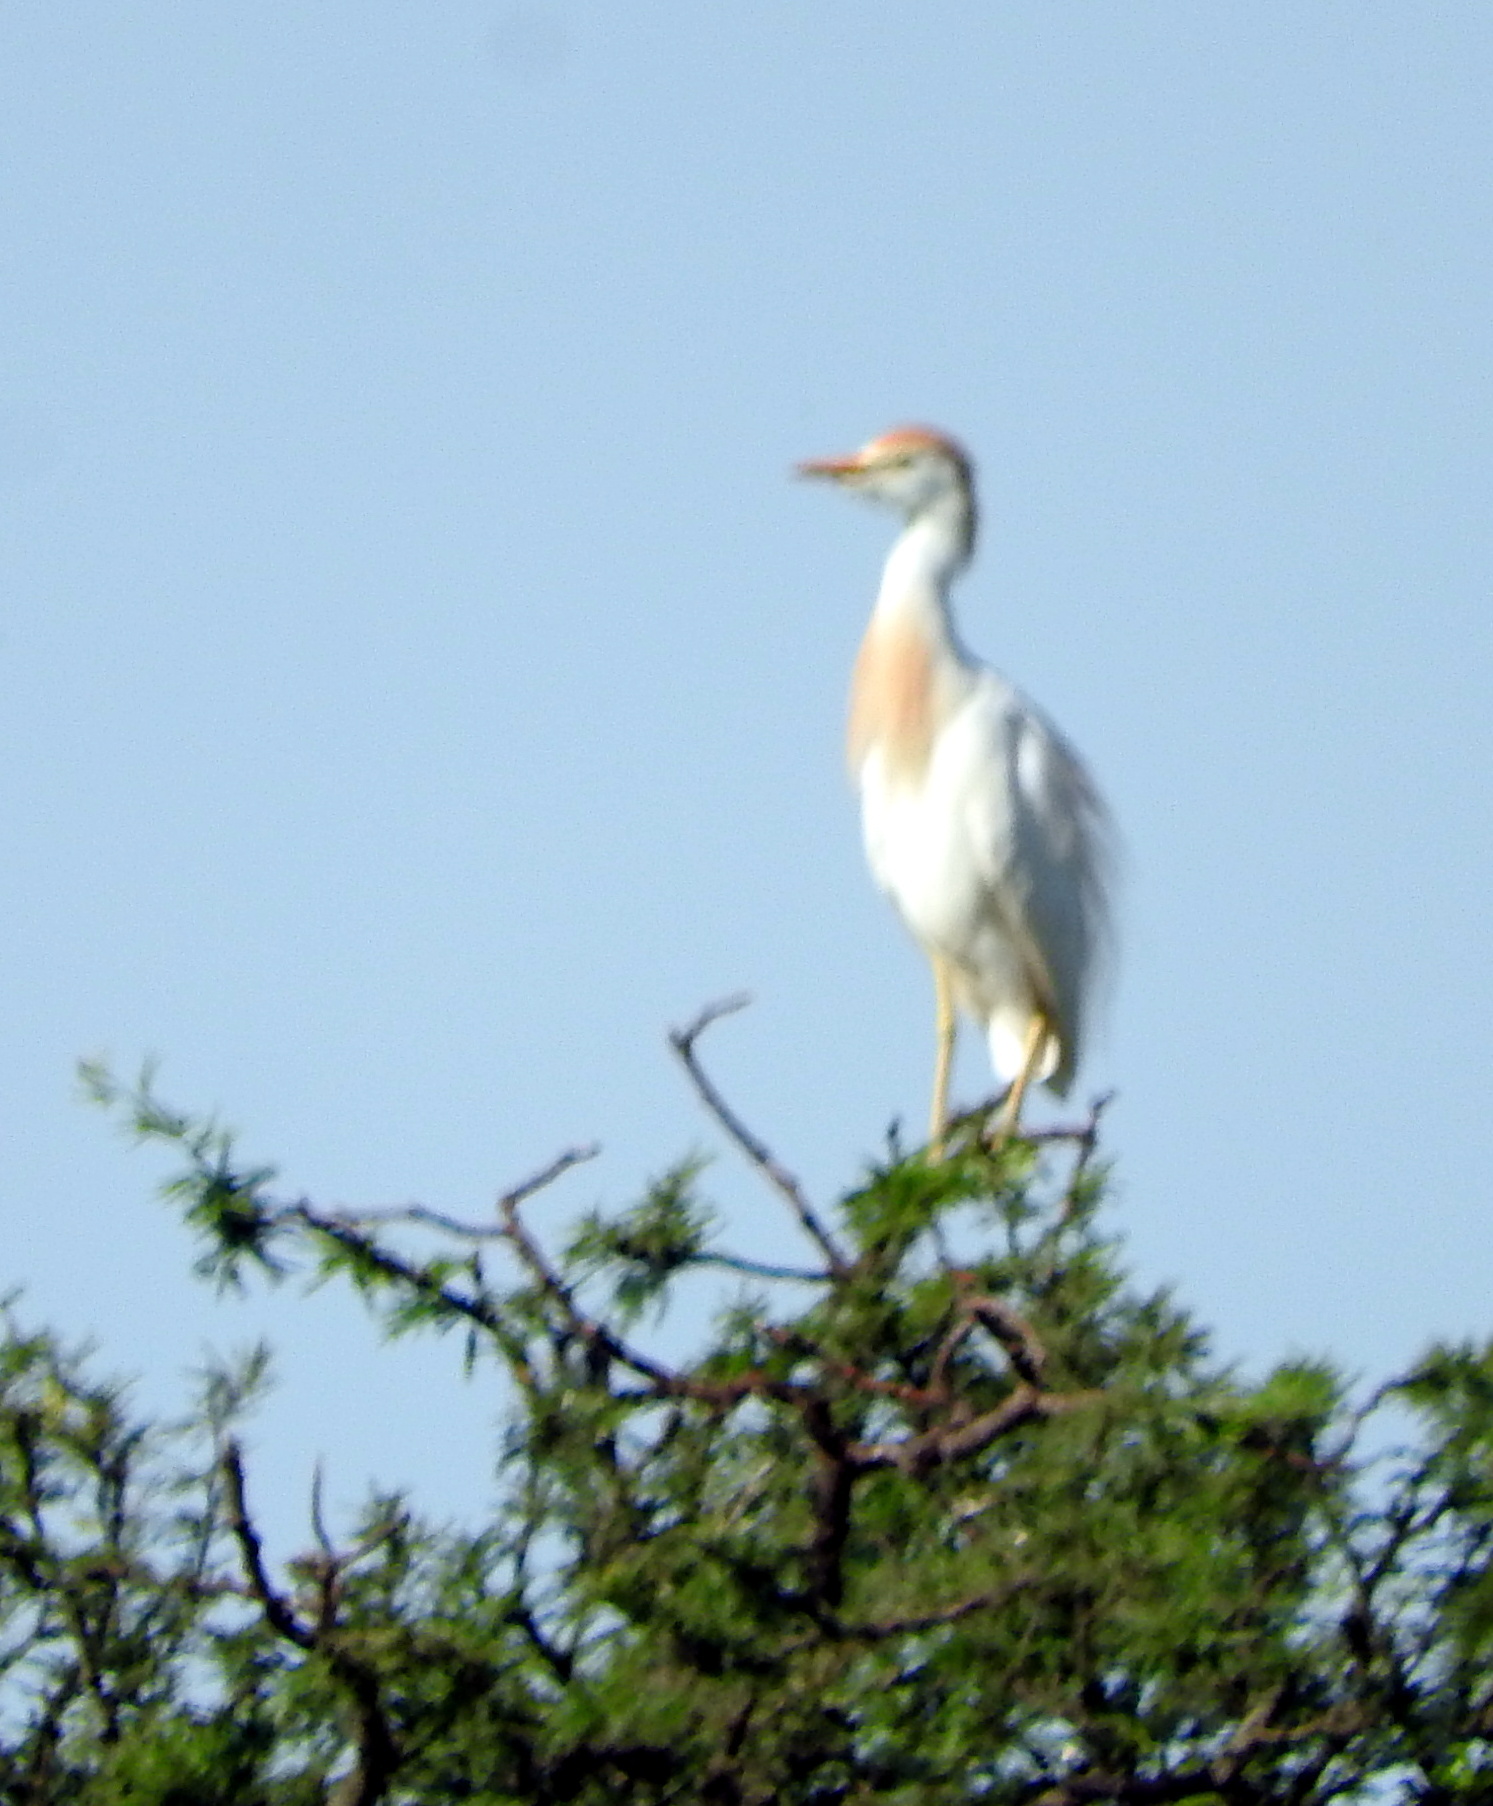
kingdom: Animalia
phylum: Chordata
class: Aves
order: Pelecaniformes
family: Ardeidae
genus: Bubulcus
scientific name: Bubulcus ibis
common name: Cattle egret
